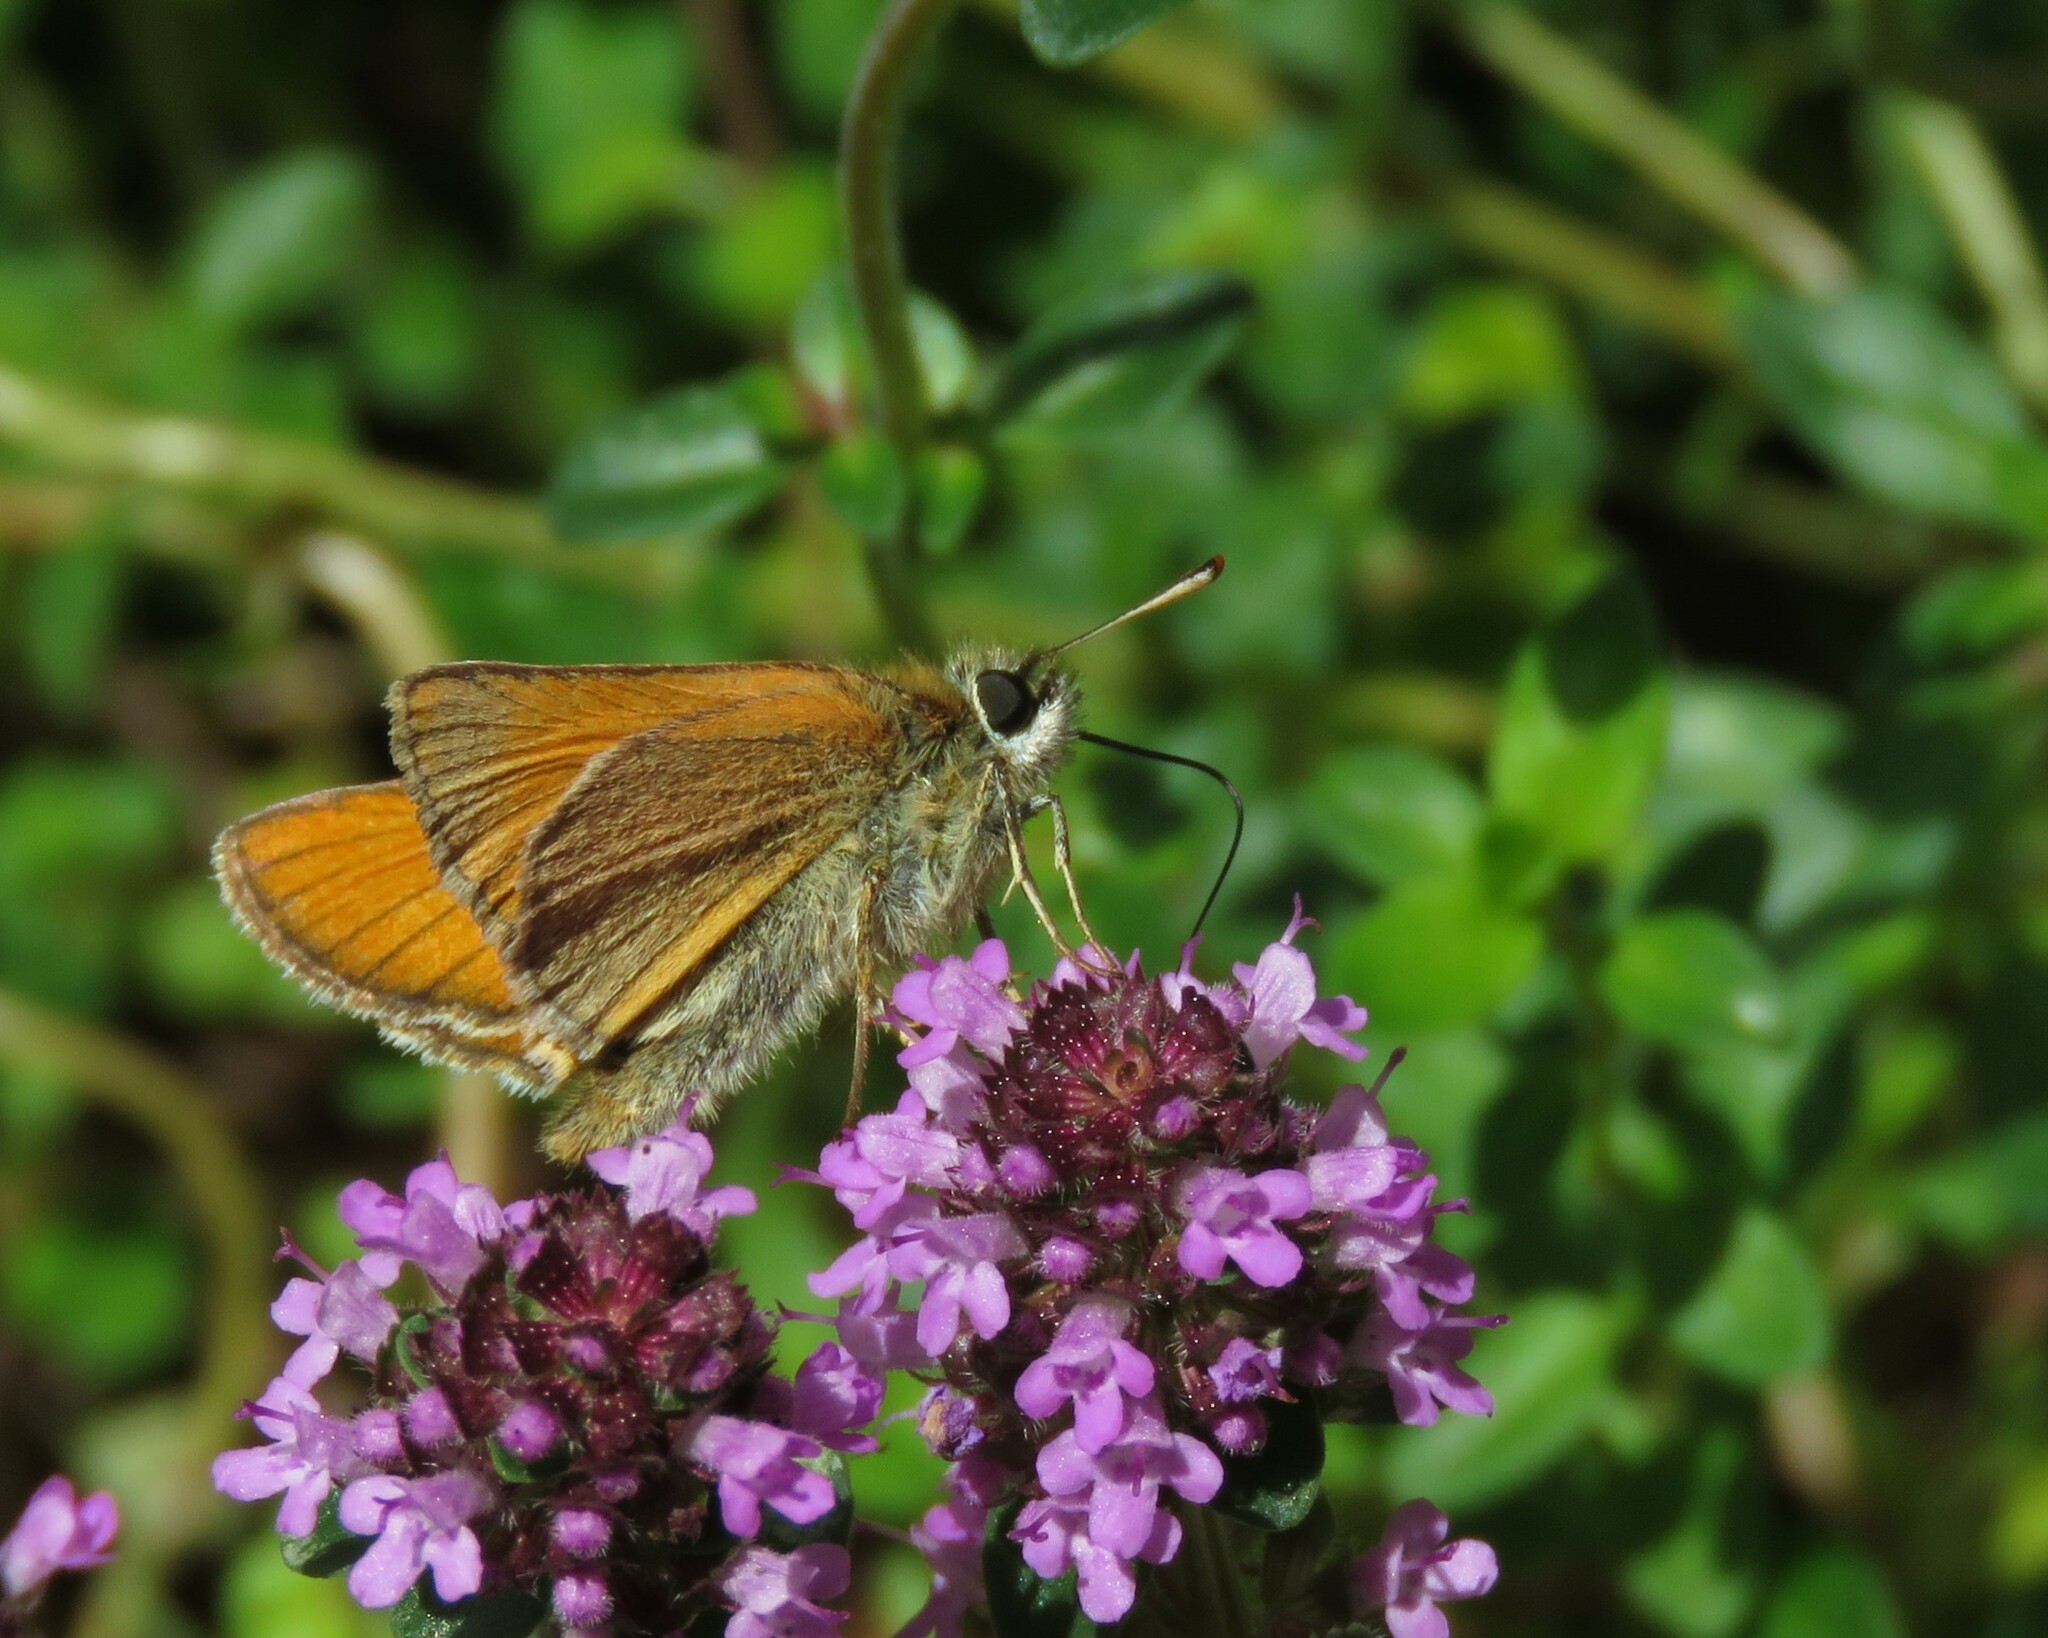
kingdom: Animalia
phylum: Arthropoda
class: Insecta
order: Lepidoptera
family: Hesperiidae
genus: Thymelicus
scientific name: Thymelicus sylvestris
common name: Small skipper
